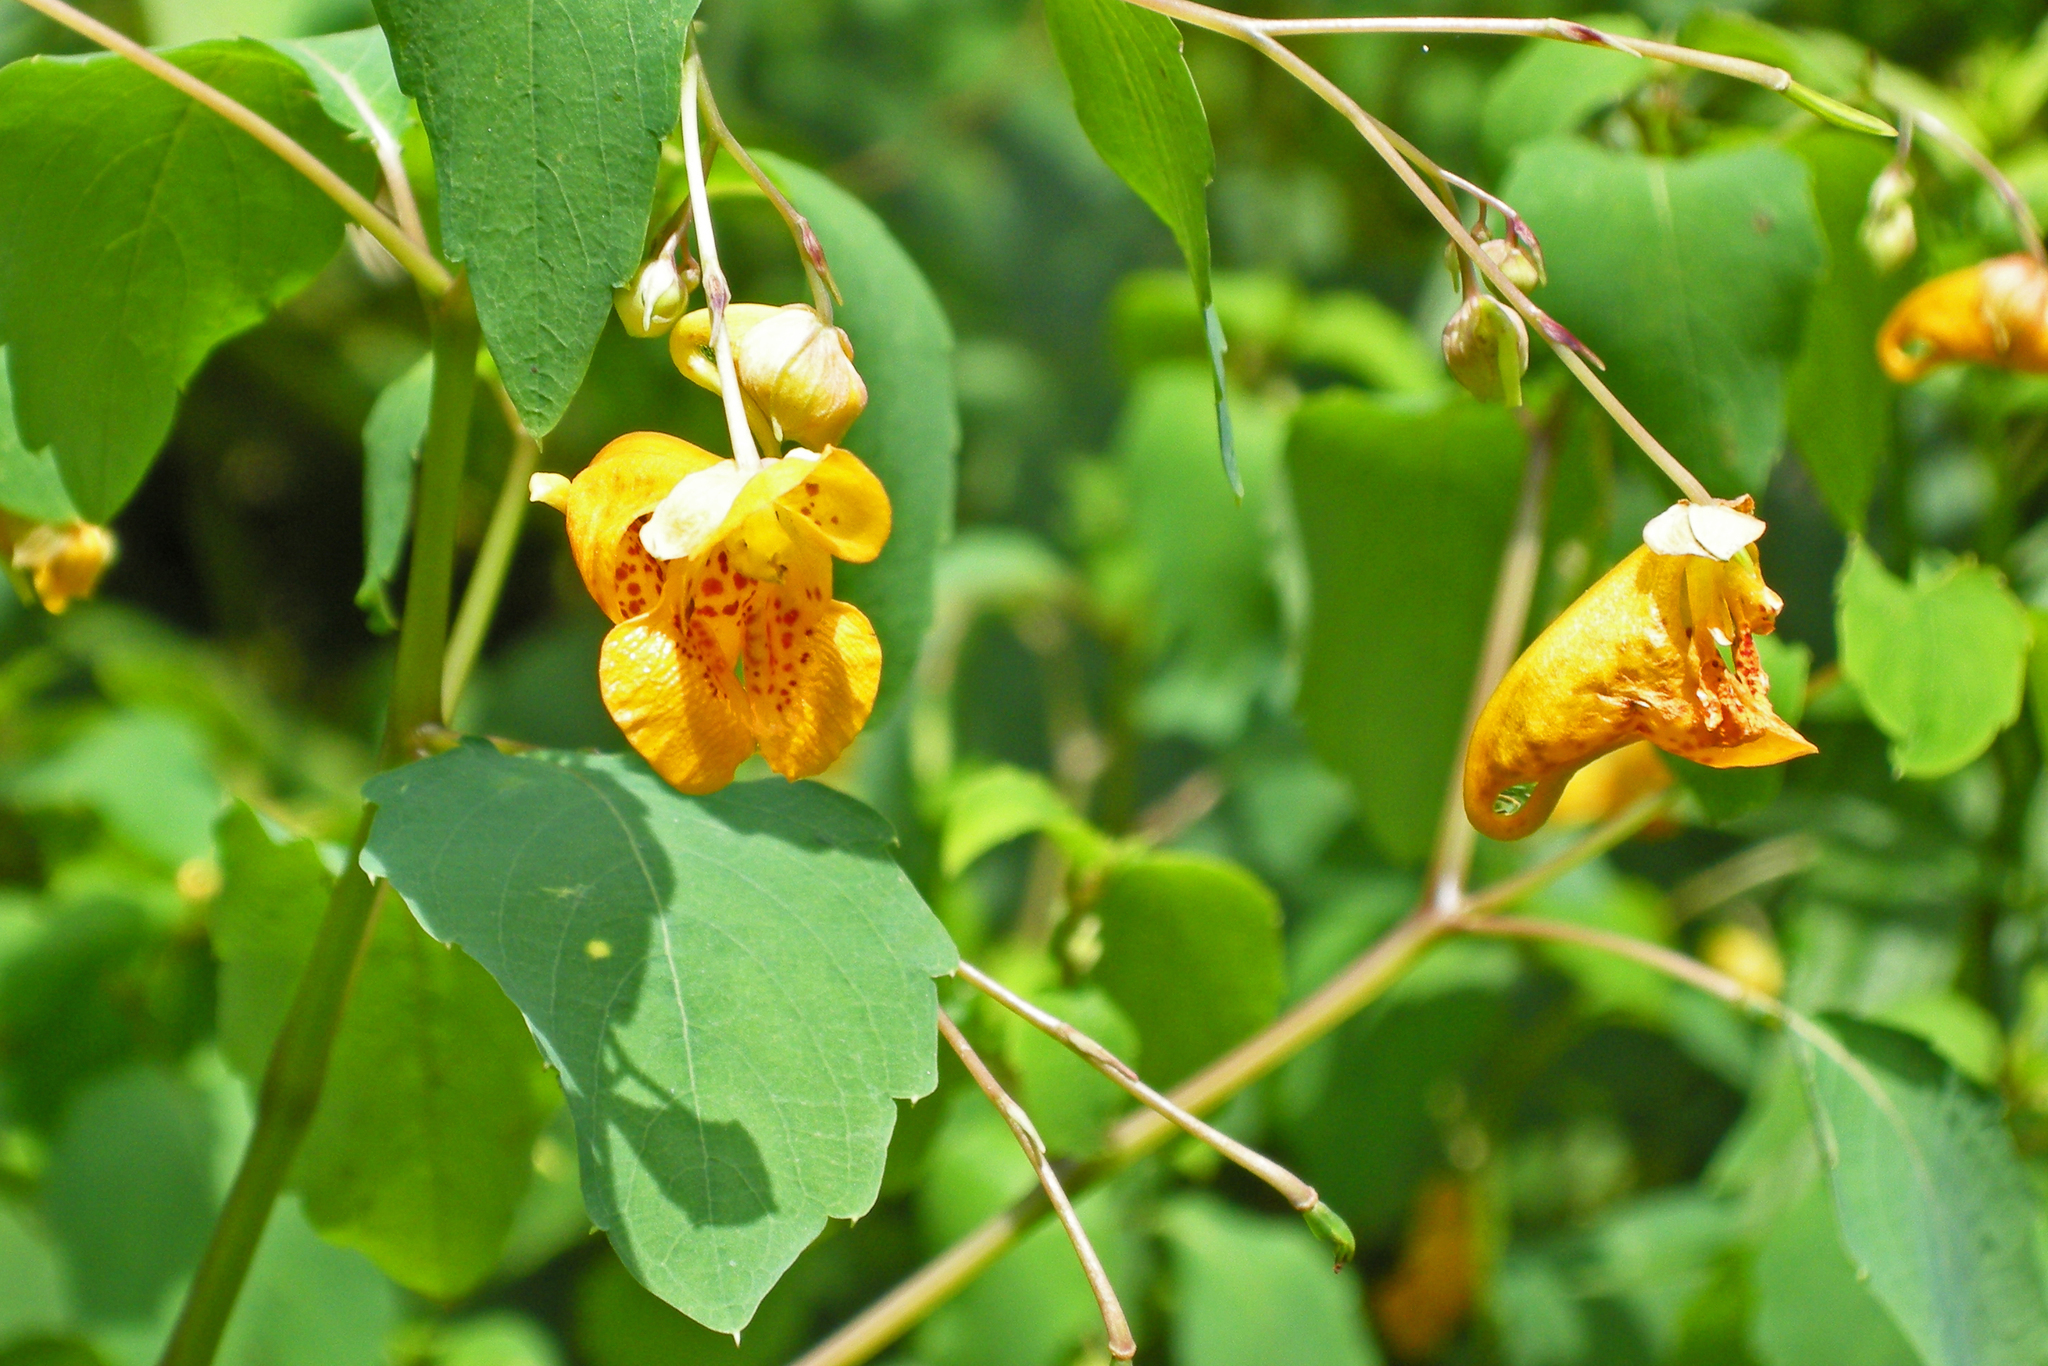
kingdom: Plantae
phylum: Tracheophyta
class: Magnoliopsida
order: Ericales
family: Balsaminaceae
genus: Impatiens
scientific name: Impatiens capensis
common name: Orange balsam
